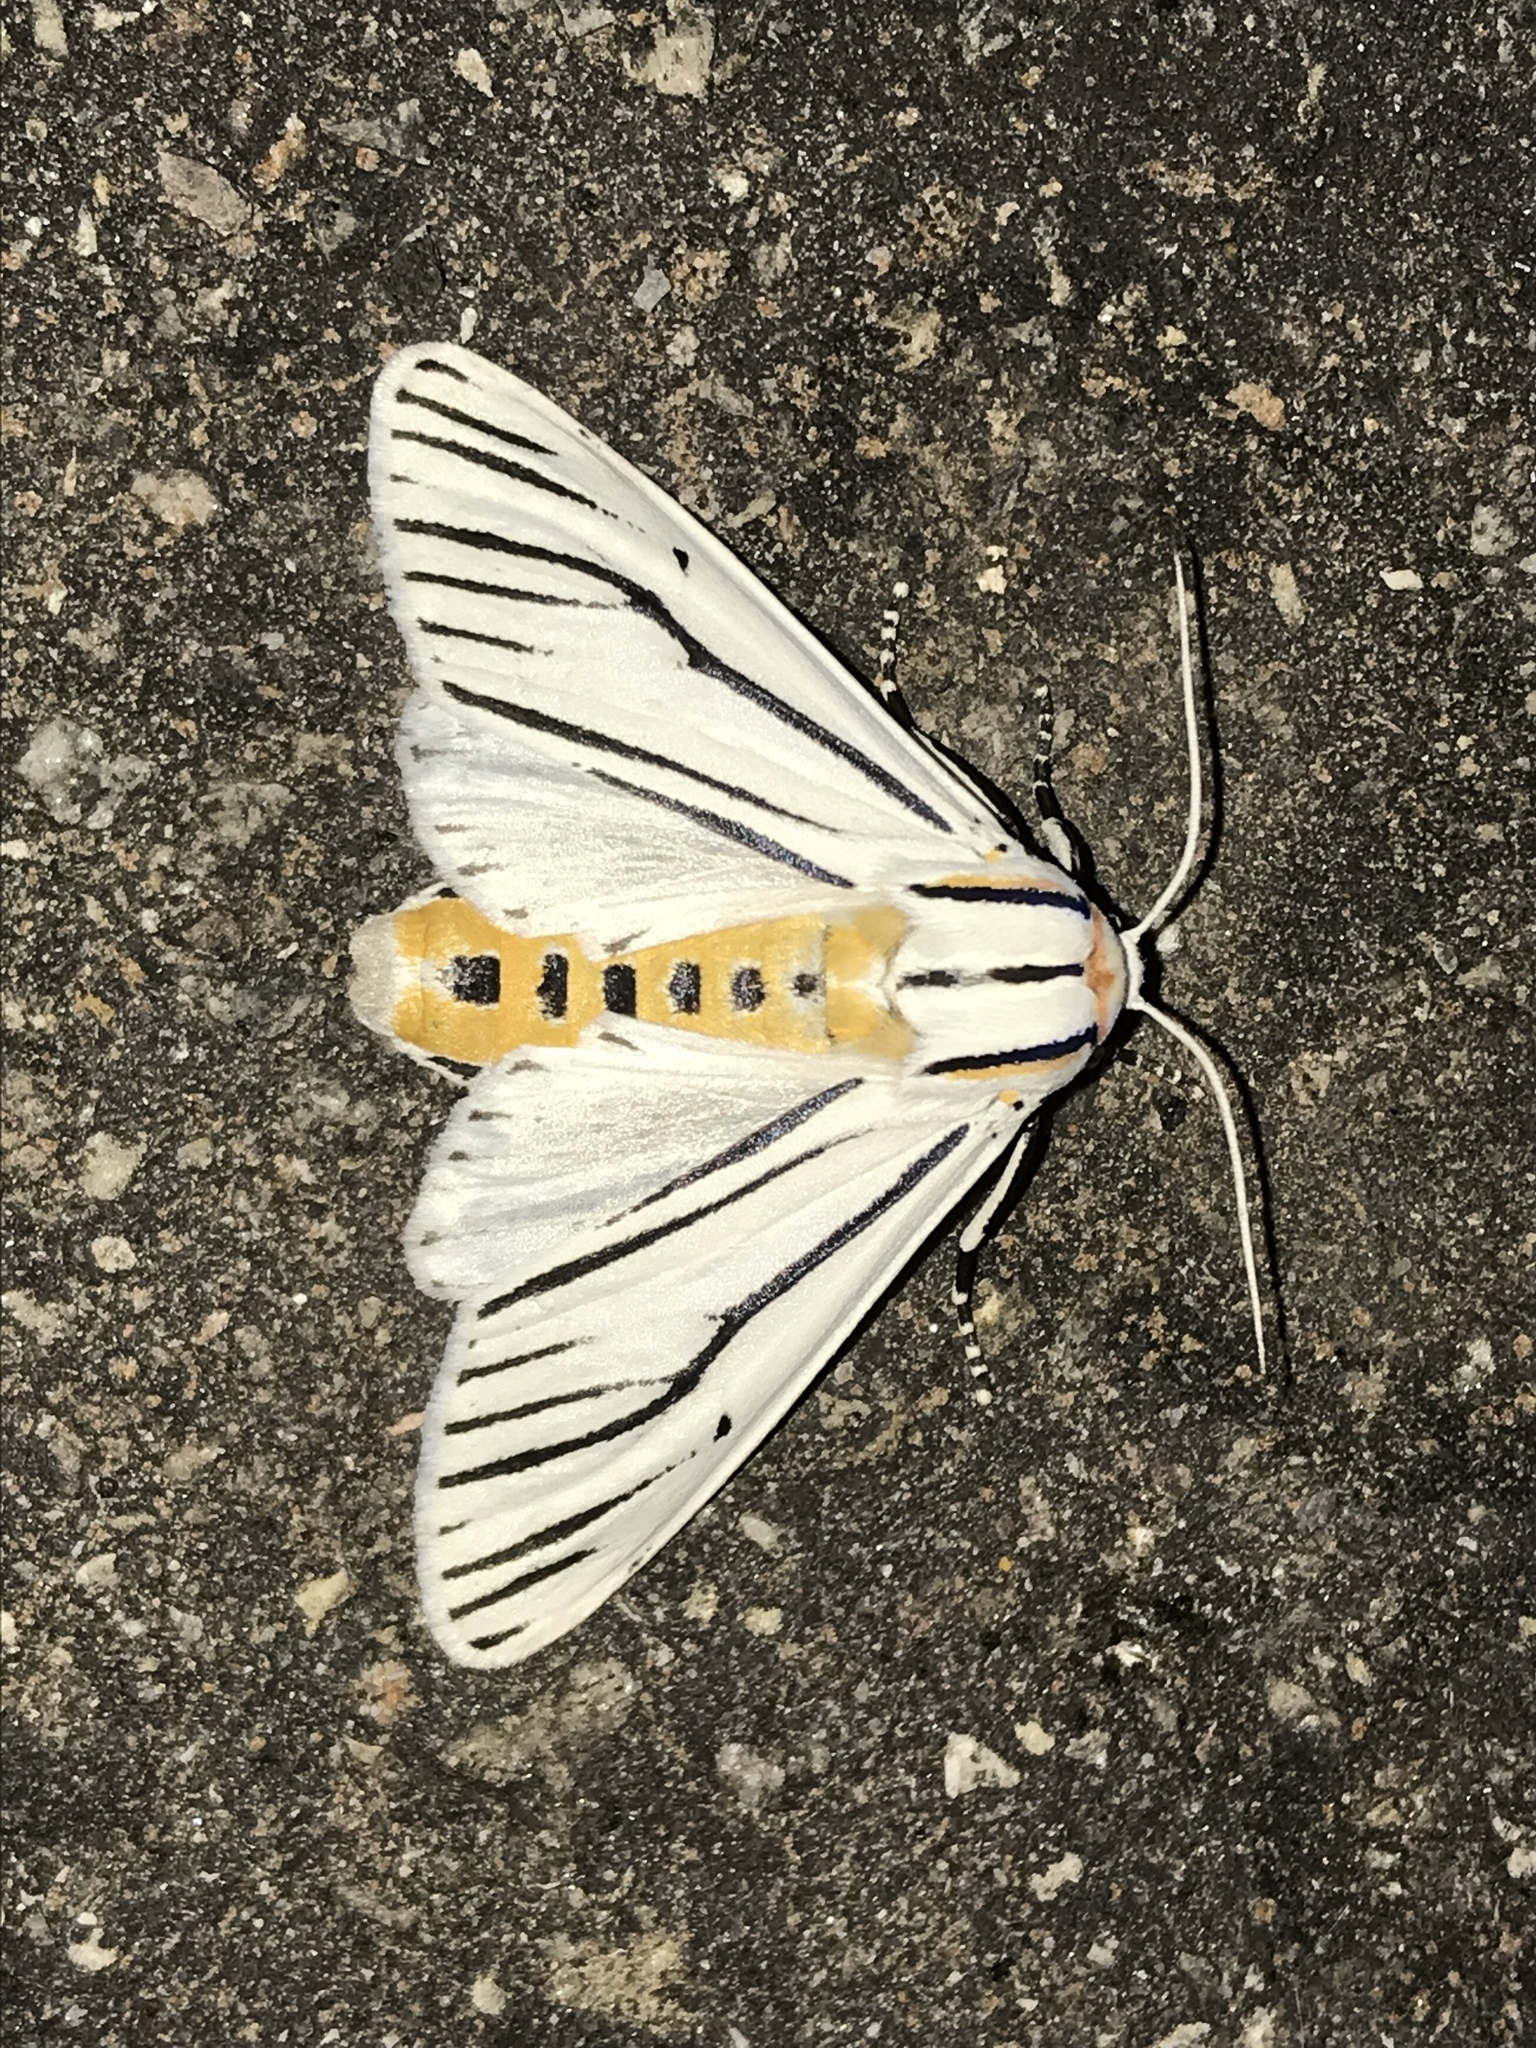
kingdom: Animalia
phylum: Arthropoda
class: Insecta
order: Lepidoptera
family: Erebidae
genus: Ectypia
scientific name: Ectypia clio
